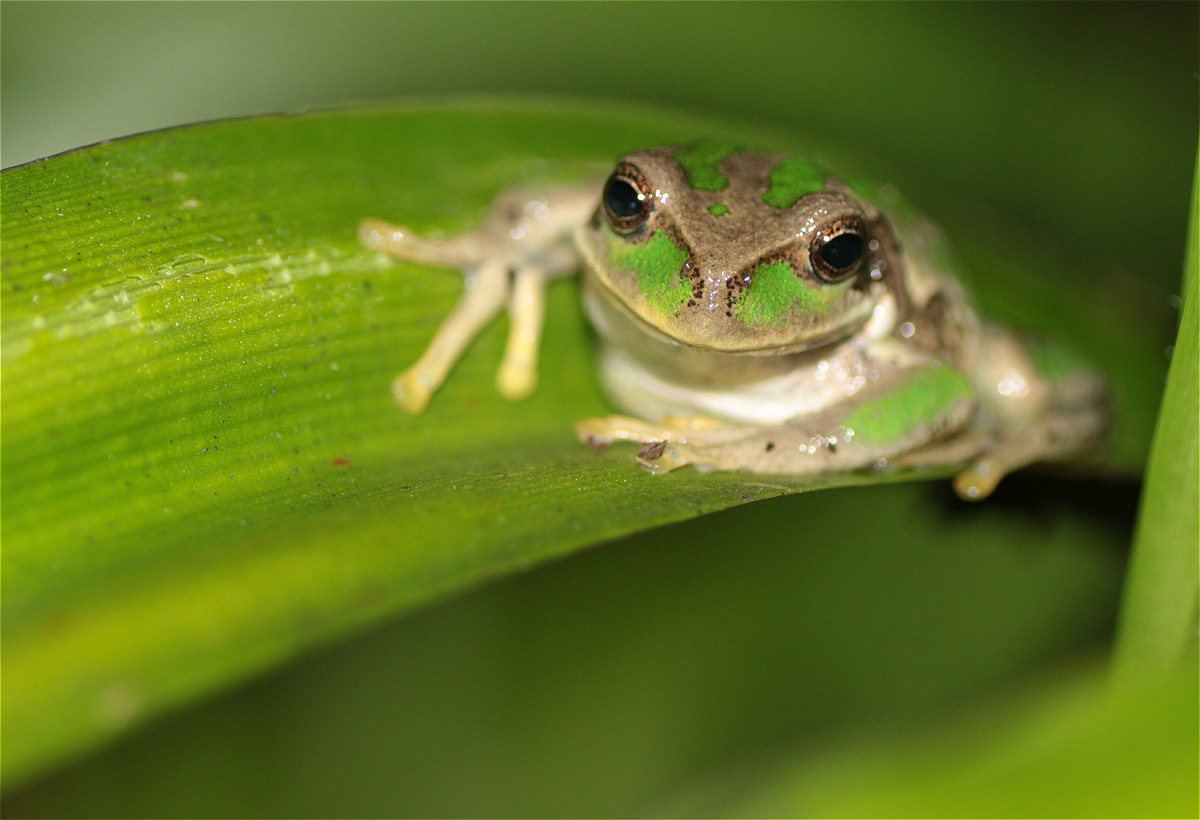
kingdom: Animalia
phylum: Chordata
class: Amphibia
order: Anura
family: Hemiphractidae
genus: Gastrotheca
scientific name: Gastrotheca cuencana
